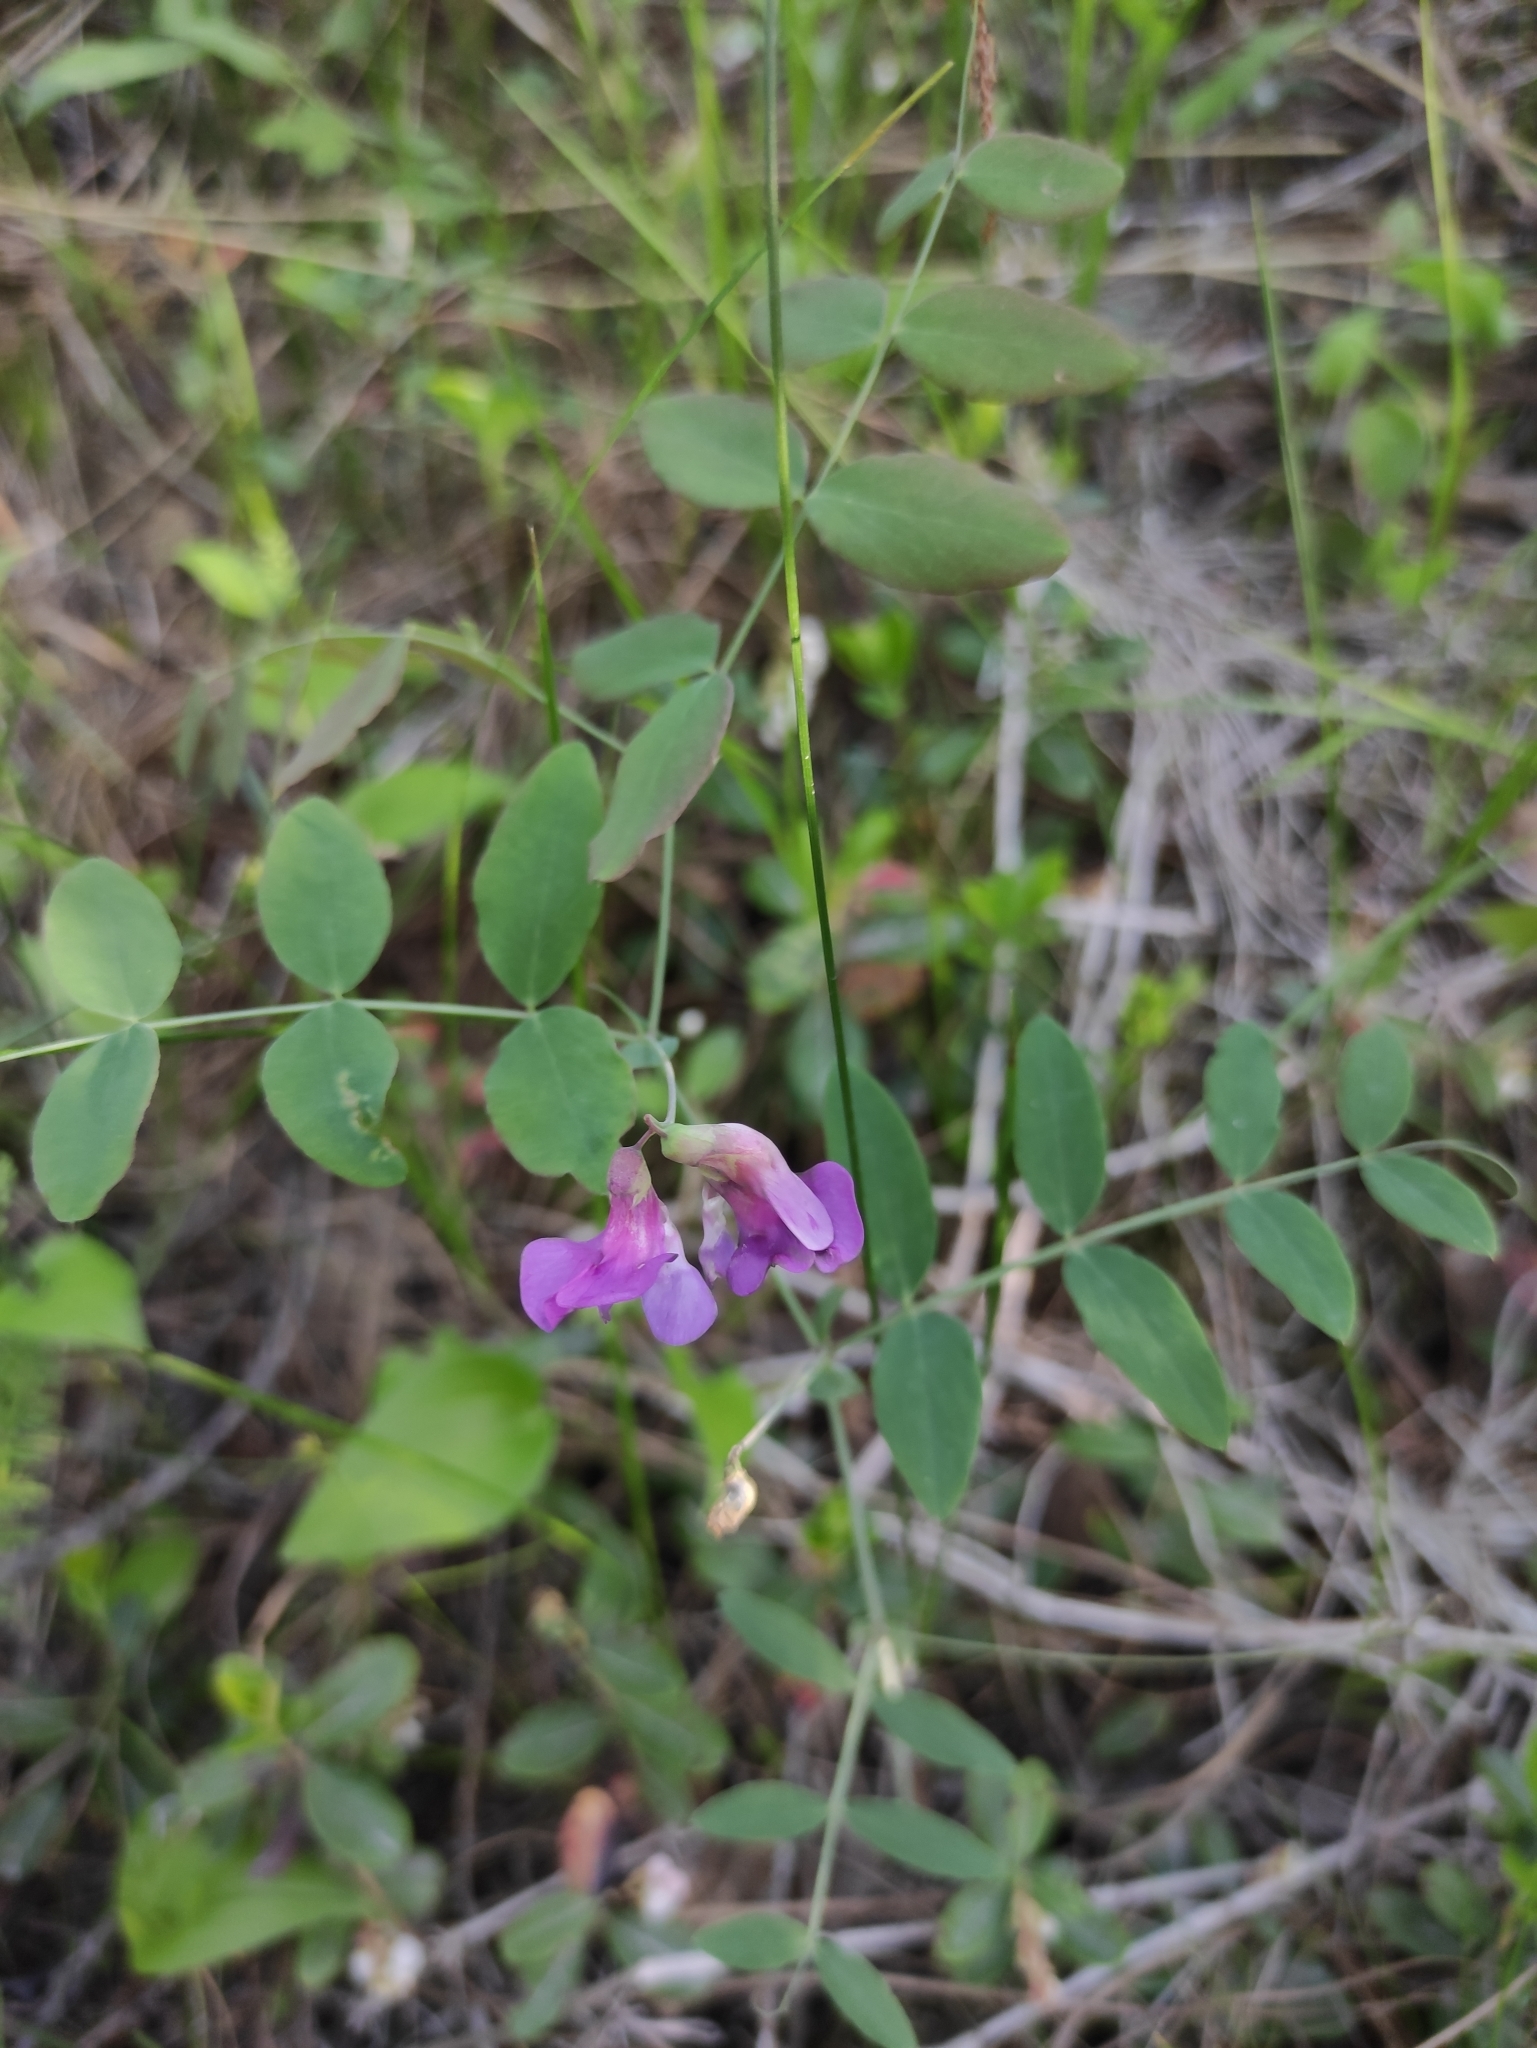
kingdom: Plantae
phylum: Tracheophyta
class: Magnoliopsida
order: Fabales
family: Fabaceae
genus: Lathyrus
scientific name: Lathyrus humilis
